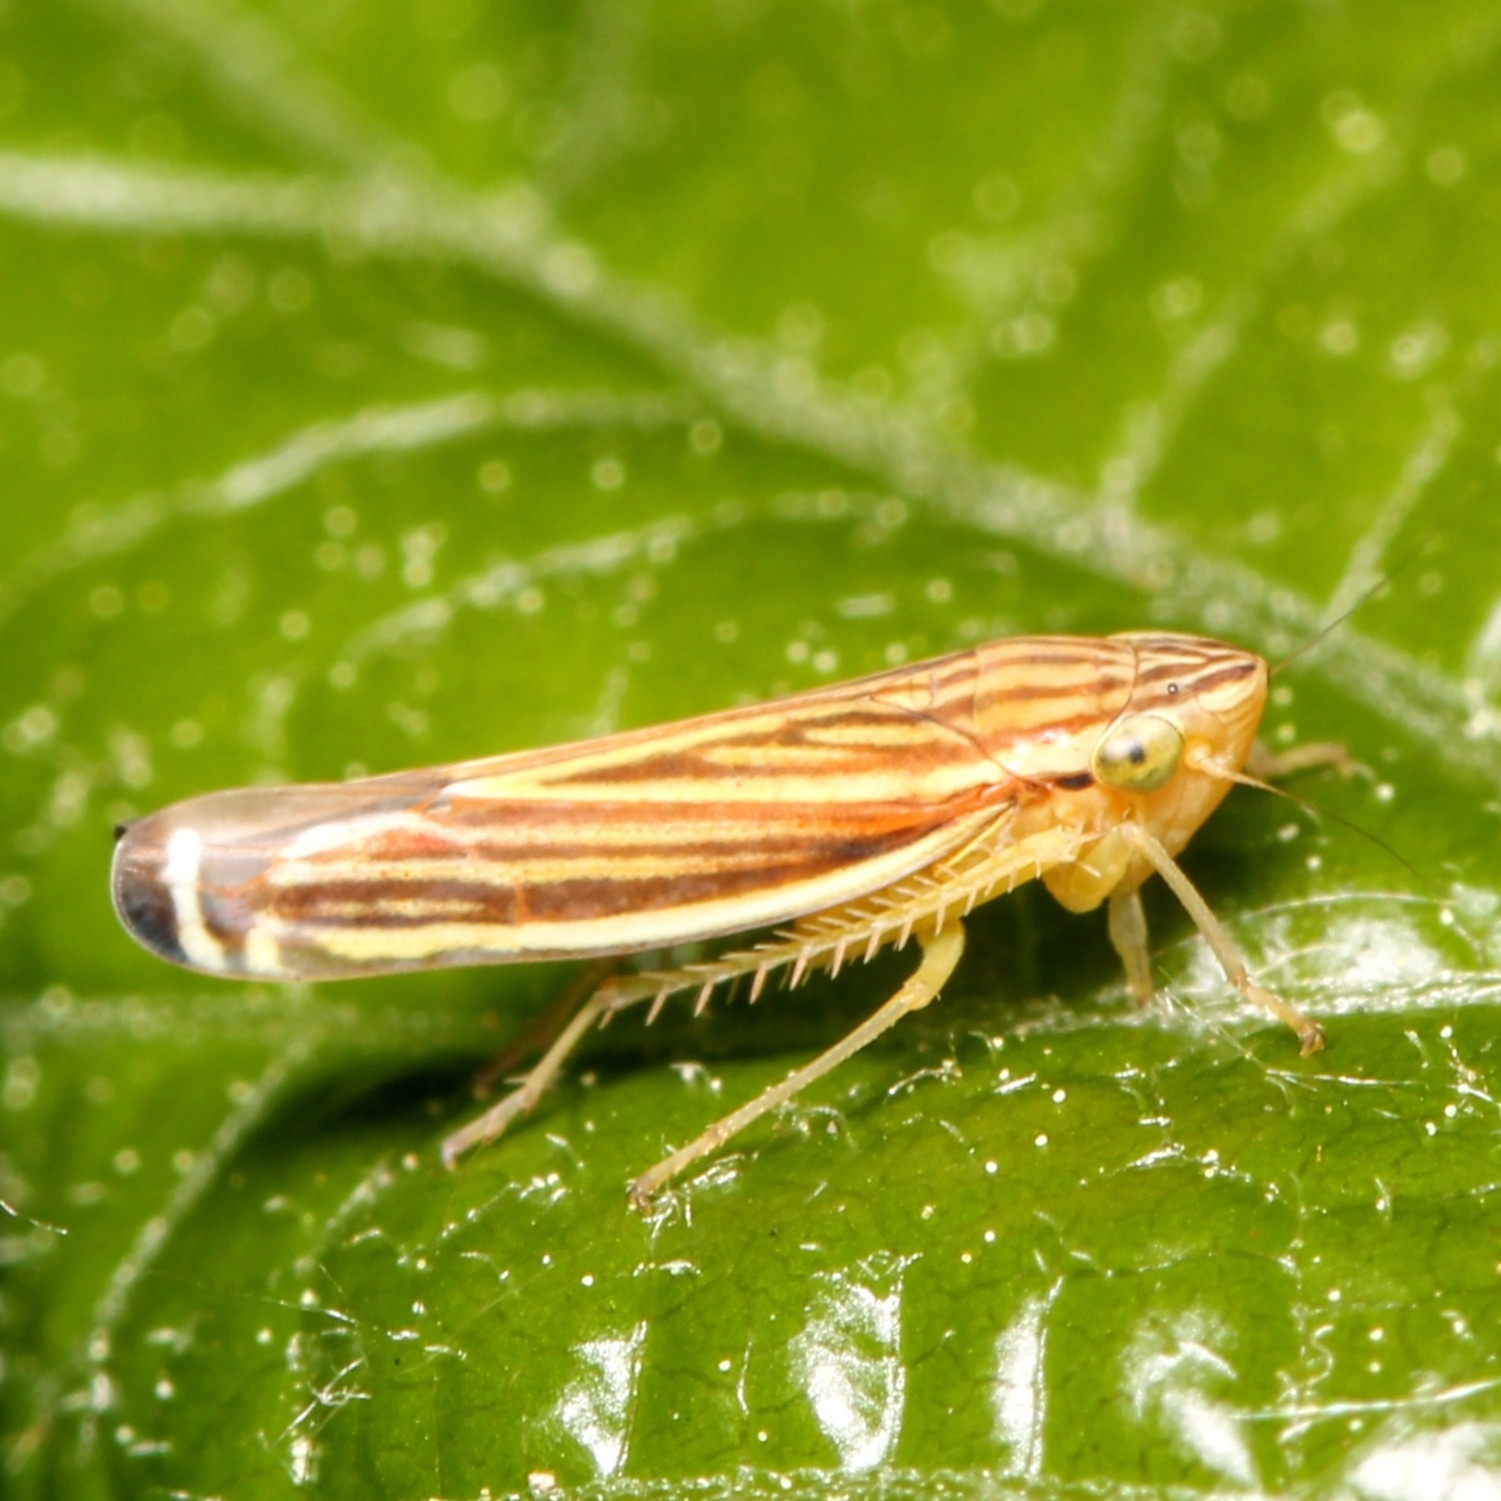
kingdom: Animalia
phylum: Arthropoda
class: Insecta
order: Hemiptera
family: Cicadellidae
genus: Sibovia
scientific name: Sibovia occatoria
